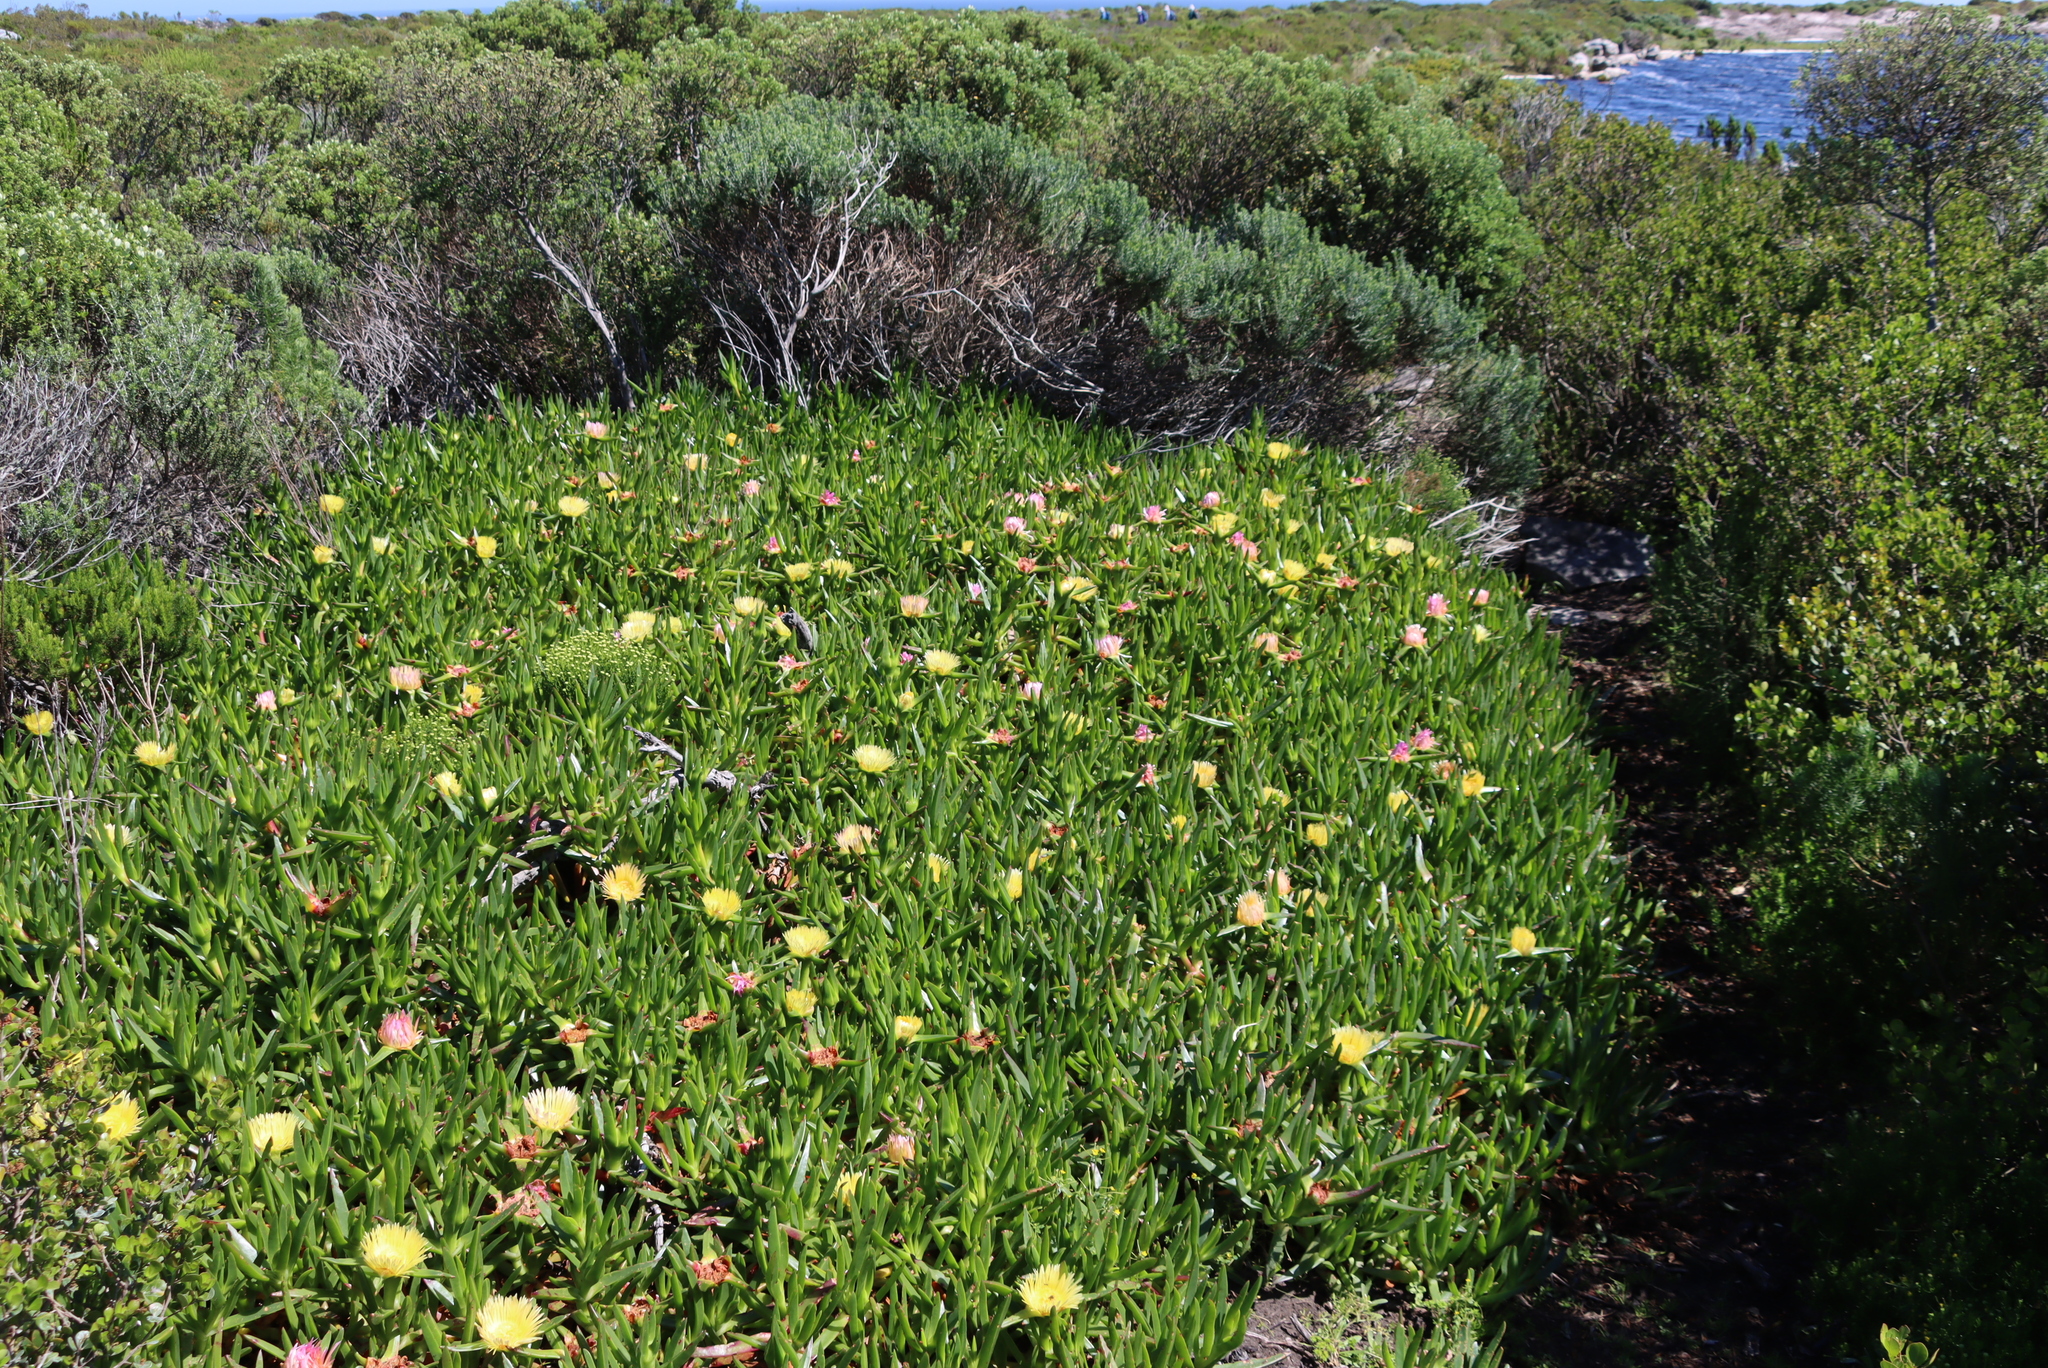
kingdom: Plantae
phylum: Tracheophyta
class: Magnoliopsida
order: Caryophyllales
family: Aizoaceae
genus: Carpobrotus
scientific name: Carpobrotus edulis
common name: Hottentot-fig
